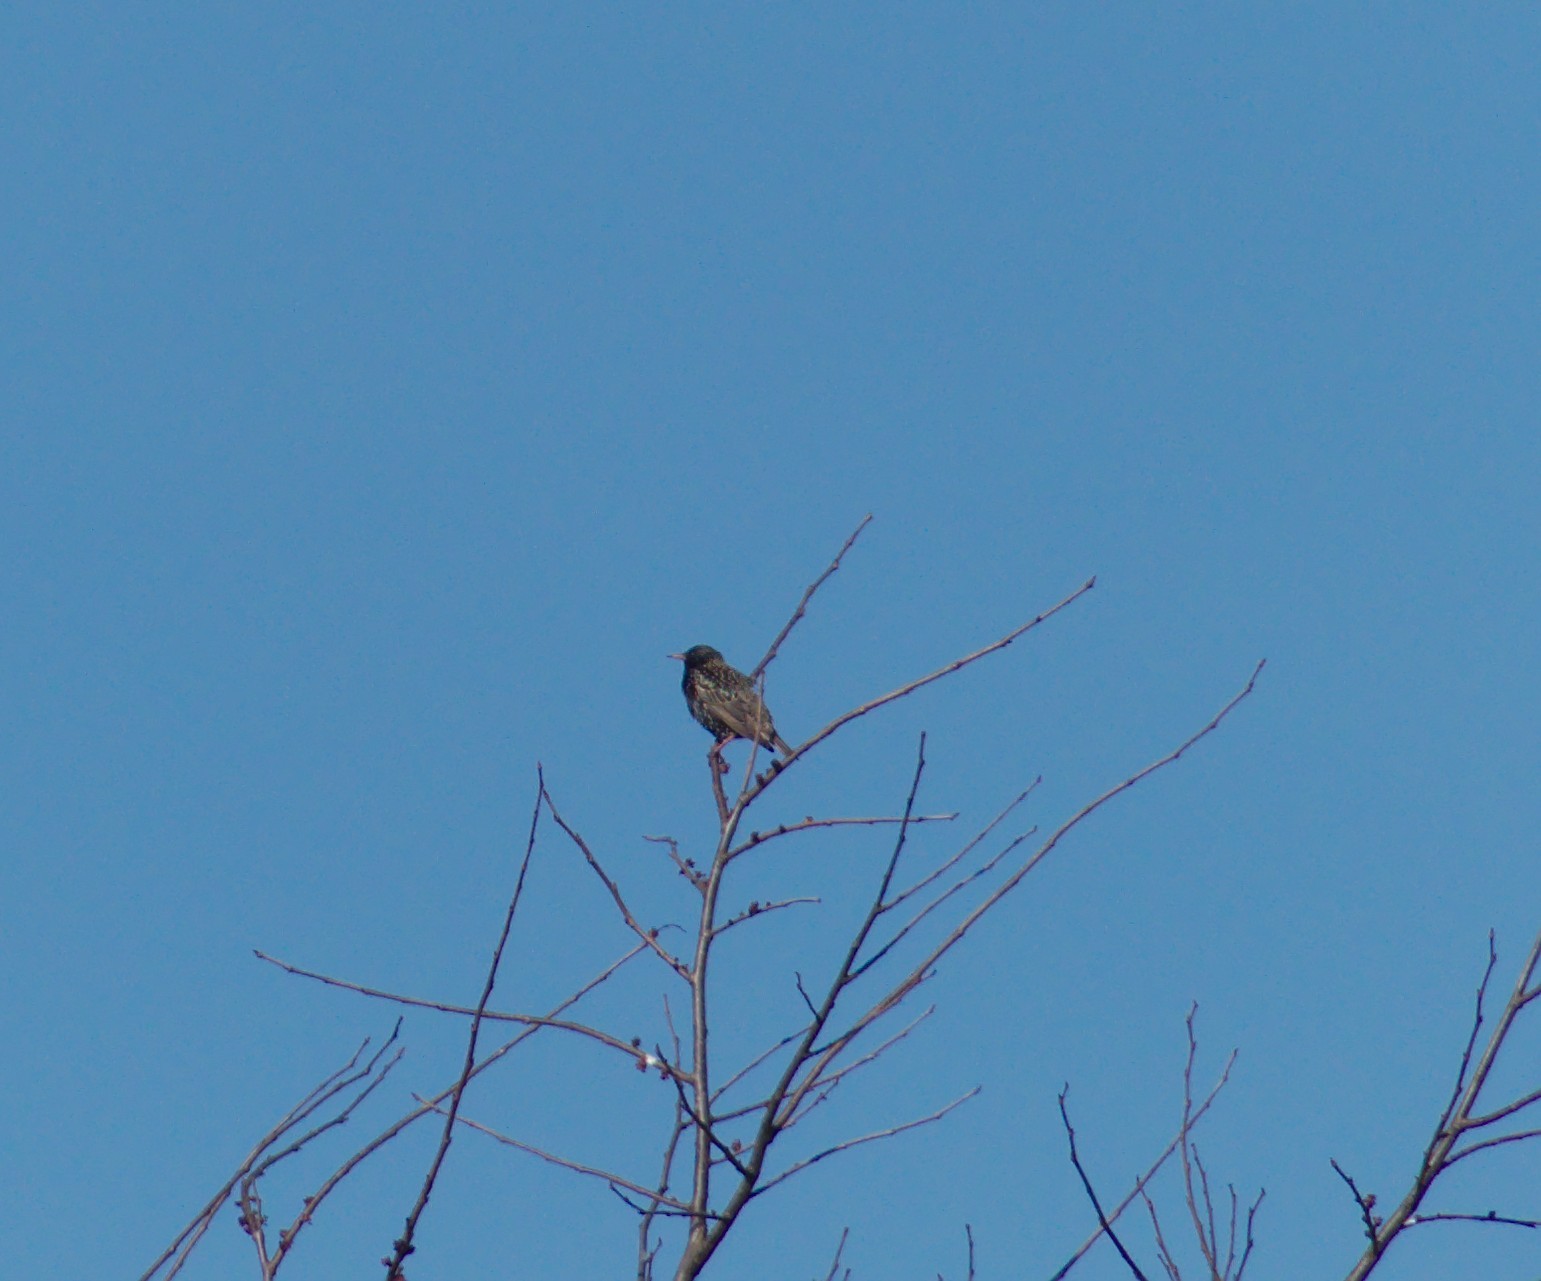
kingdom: Animalia
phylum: Chordata
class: Aves
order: Passeriformes
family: Sturnidae
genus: Sturnus
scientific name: Sturnus vulgaris
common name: Common starling
